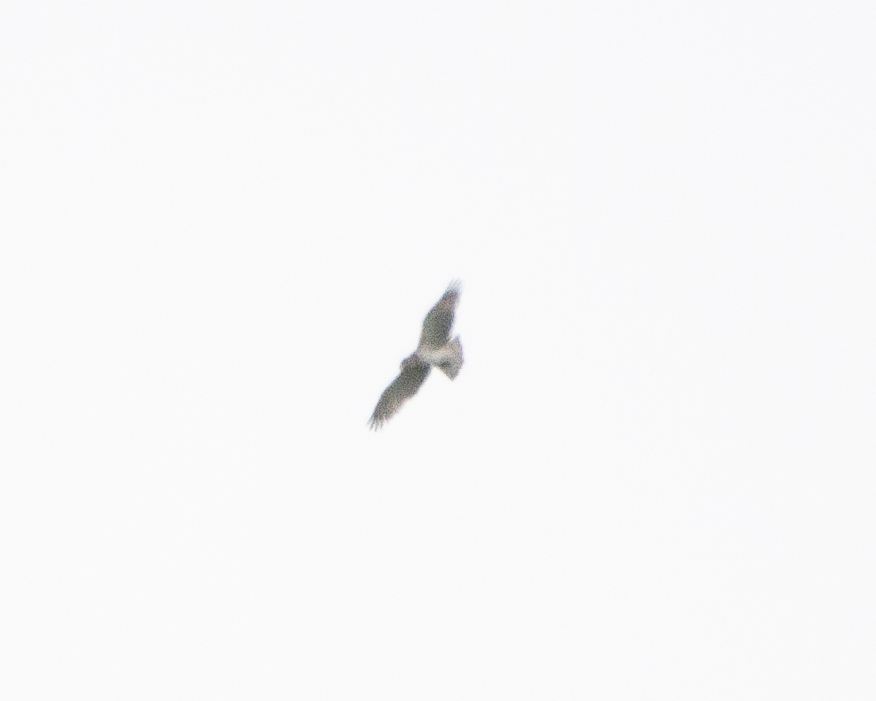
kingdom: Animalia
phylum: Chordata
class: Aves
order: Accipitriformes
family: Accipitridae
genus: Circaetus
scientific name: Circaetus gallicus
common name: Short-toed snake eagle
